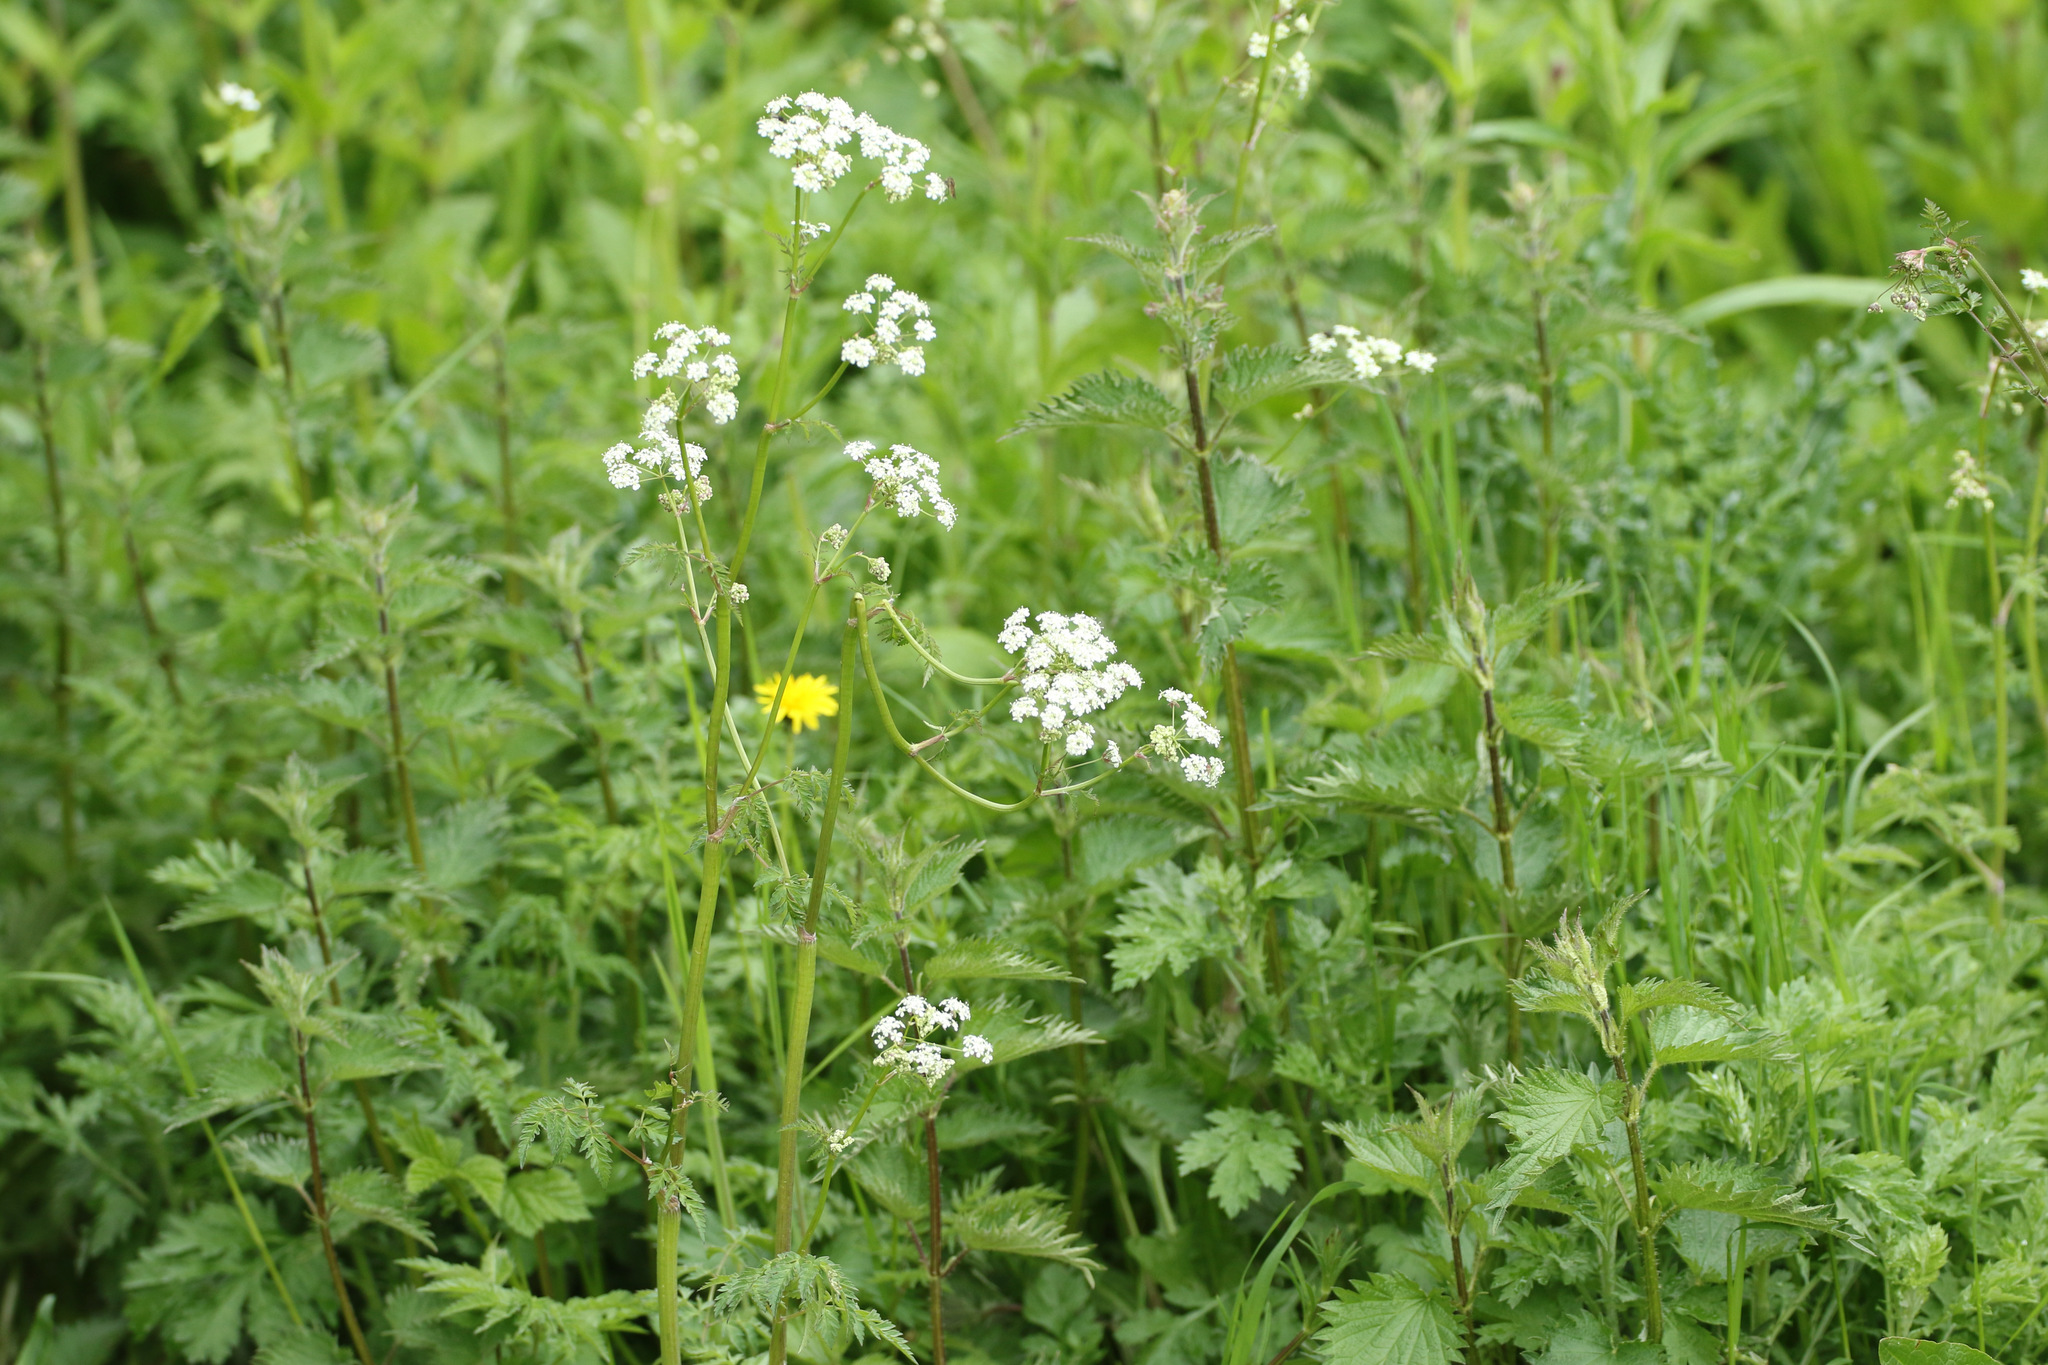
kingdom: Plantae
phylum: Tracheophyta
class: Magnoliopsida
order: Apiales
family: Apiaceae
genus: Anthriscus
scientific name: Anthriscus sylvestris
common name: Cow parsley
